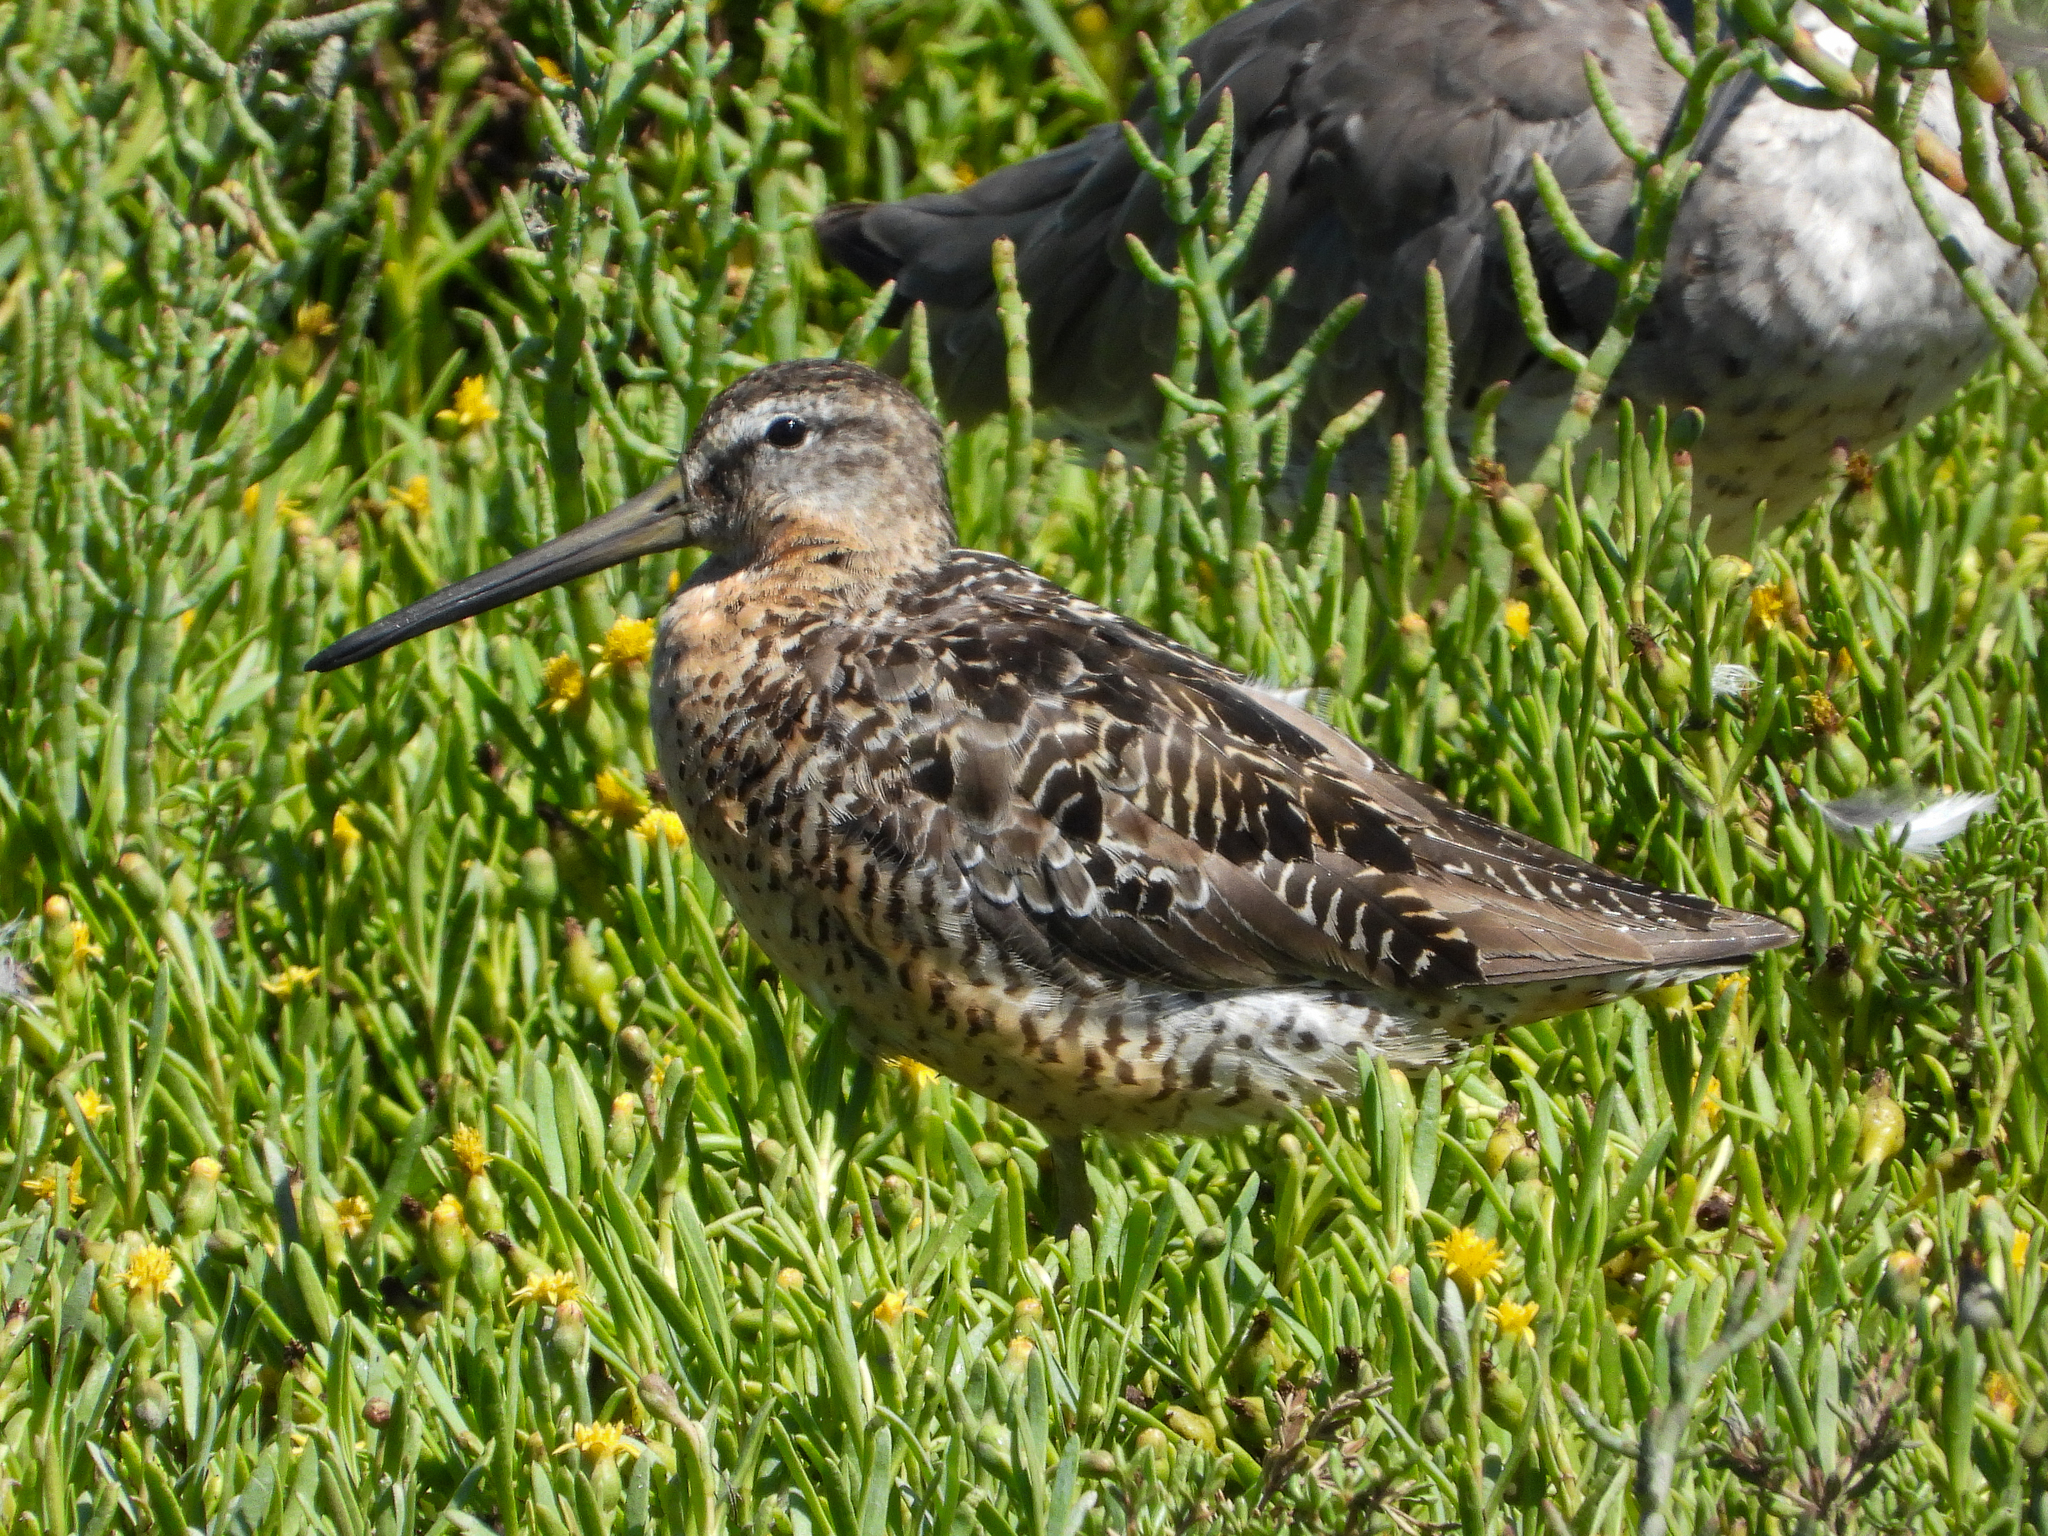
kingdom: Animalia
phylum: Chordata
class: Aves
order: Charadriiformes
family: Scolopacidae
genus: Limnodromus
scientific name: Limnodromus griseus
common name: Short-billed dowitcher
